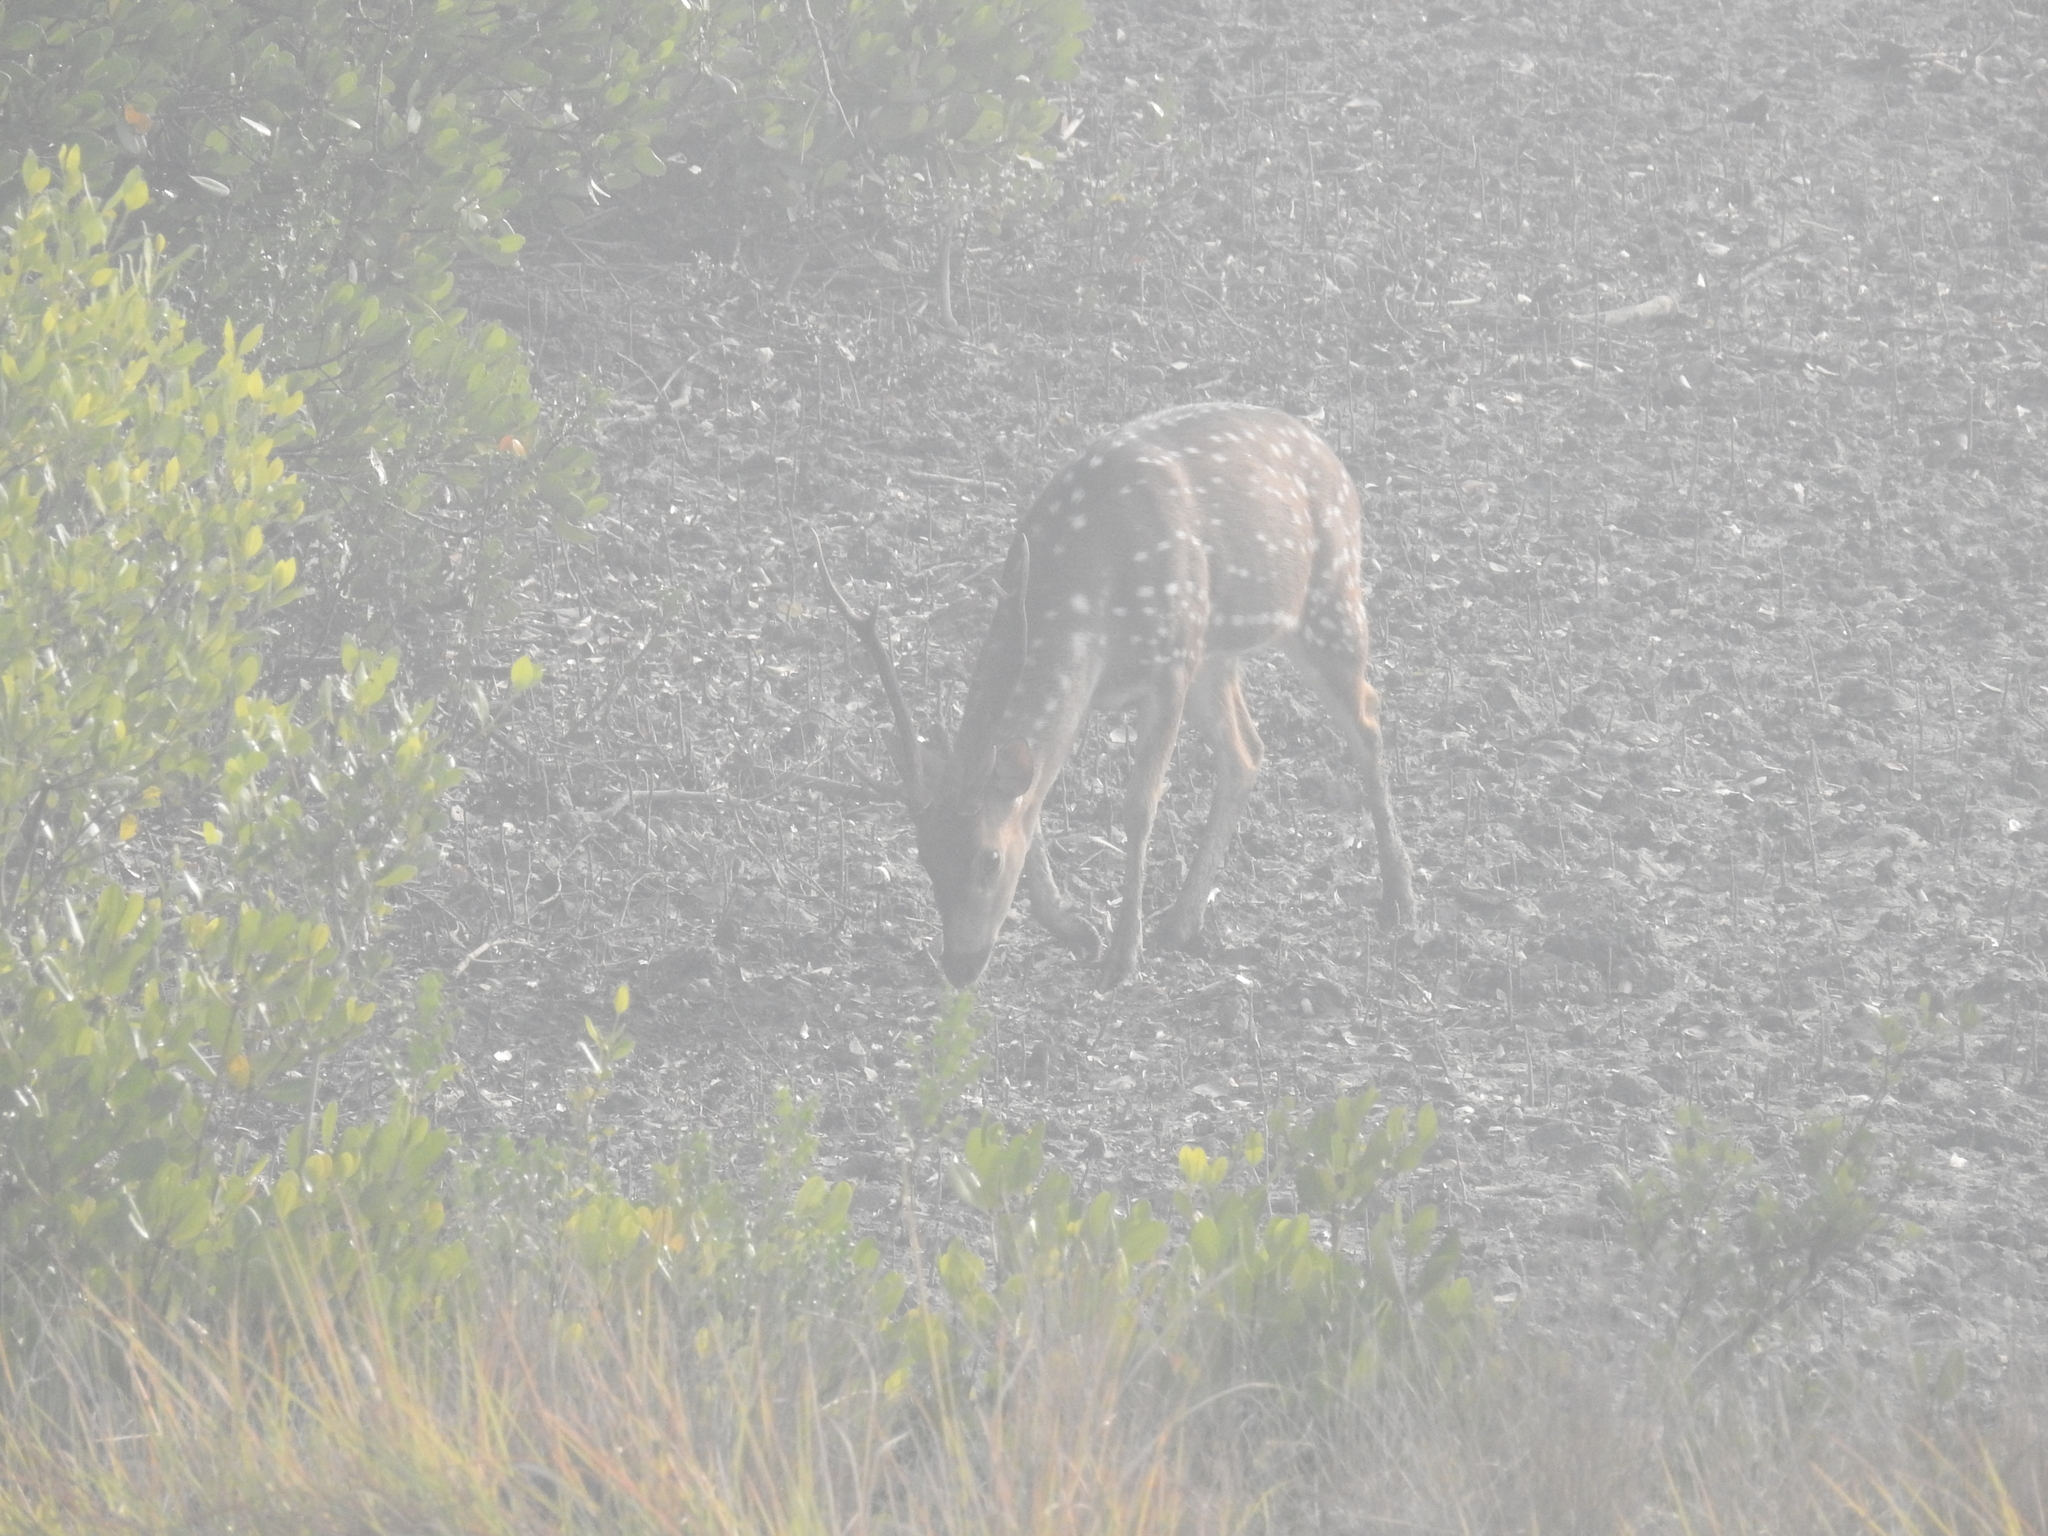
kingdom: Animalia
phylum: Chordata
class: Mammalia
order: Artiodactyla
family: Cervidae
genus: Axis
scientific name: Axis axis
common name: Chital
